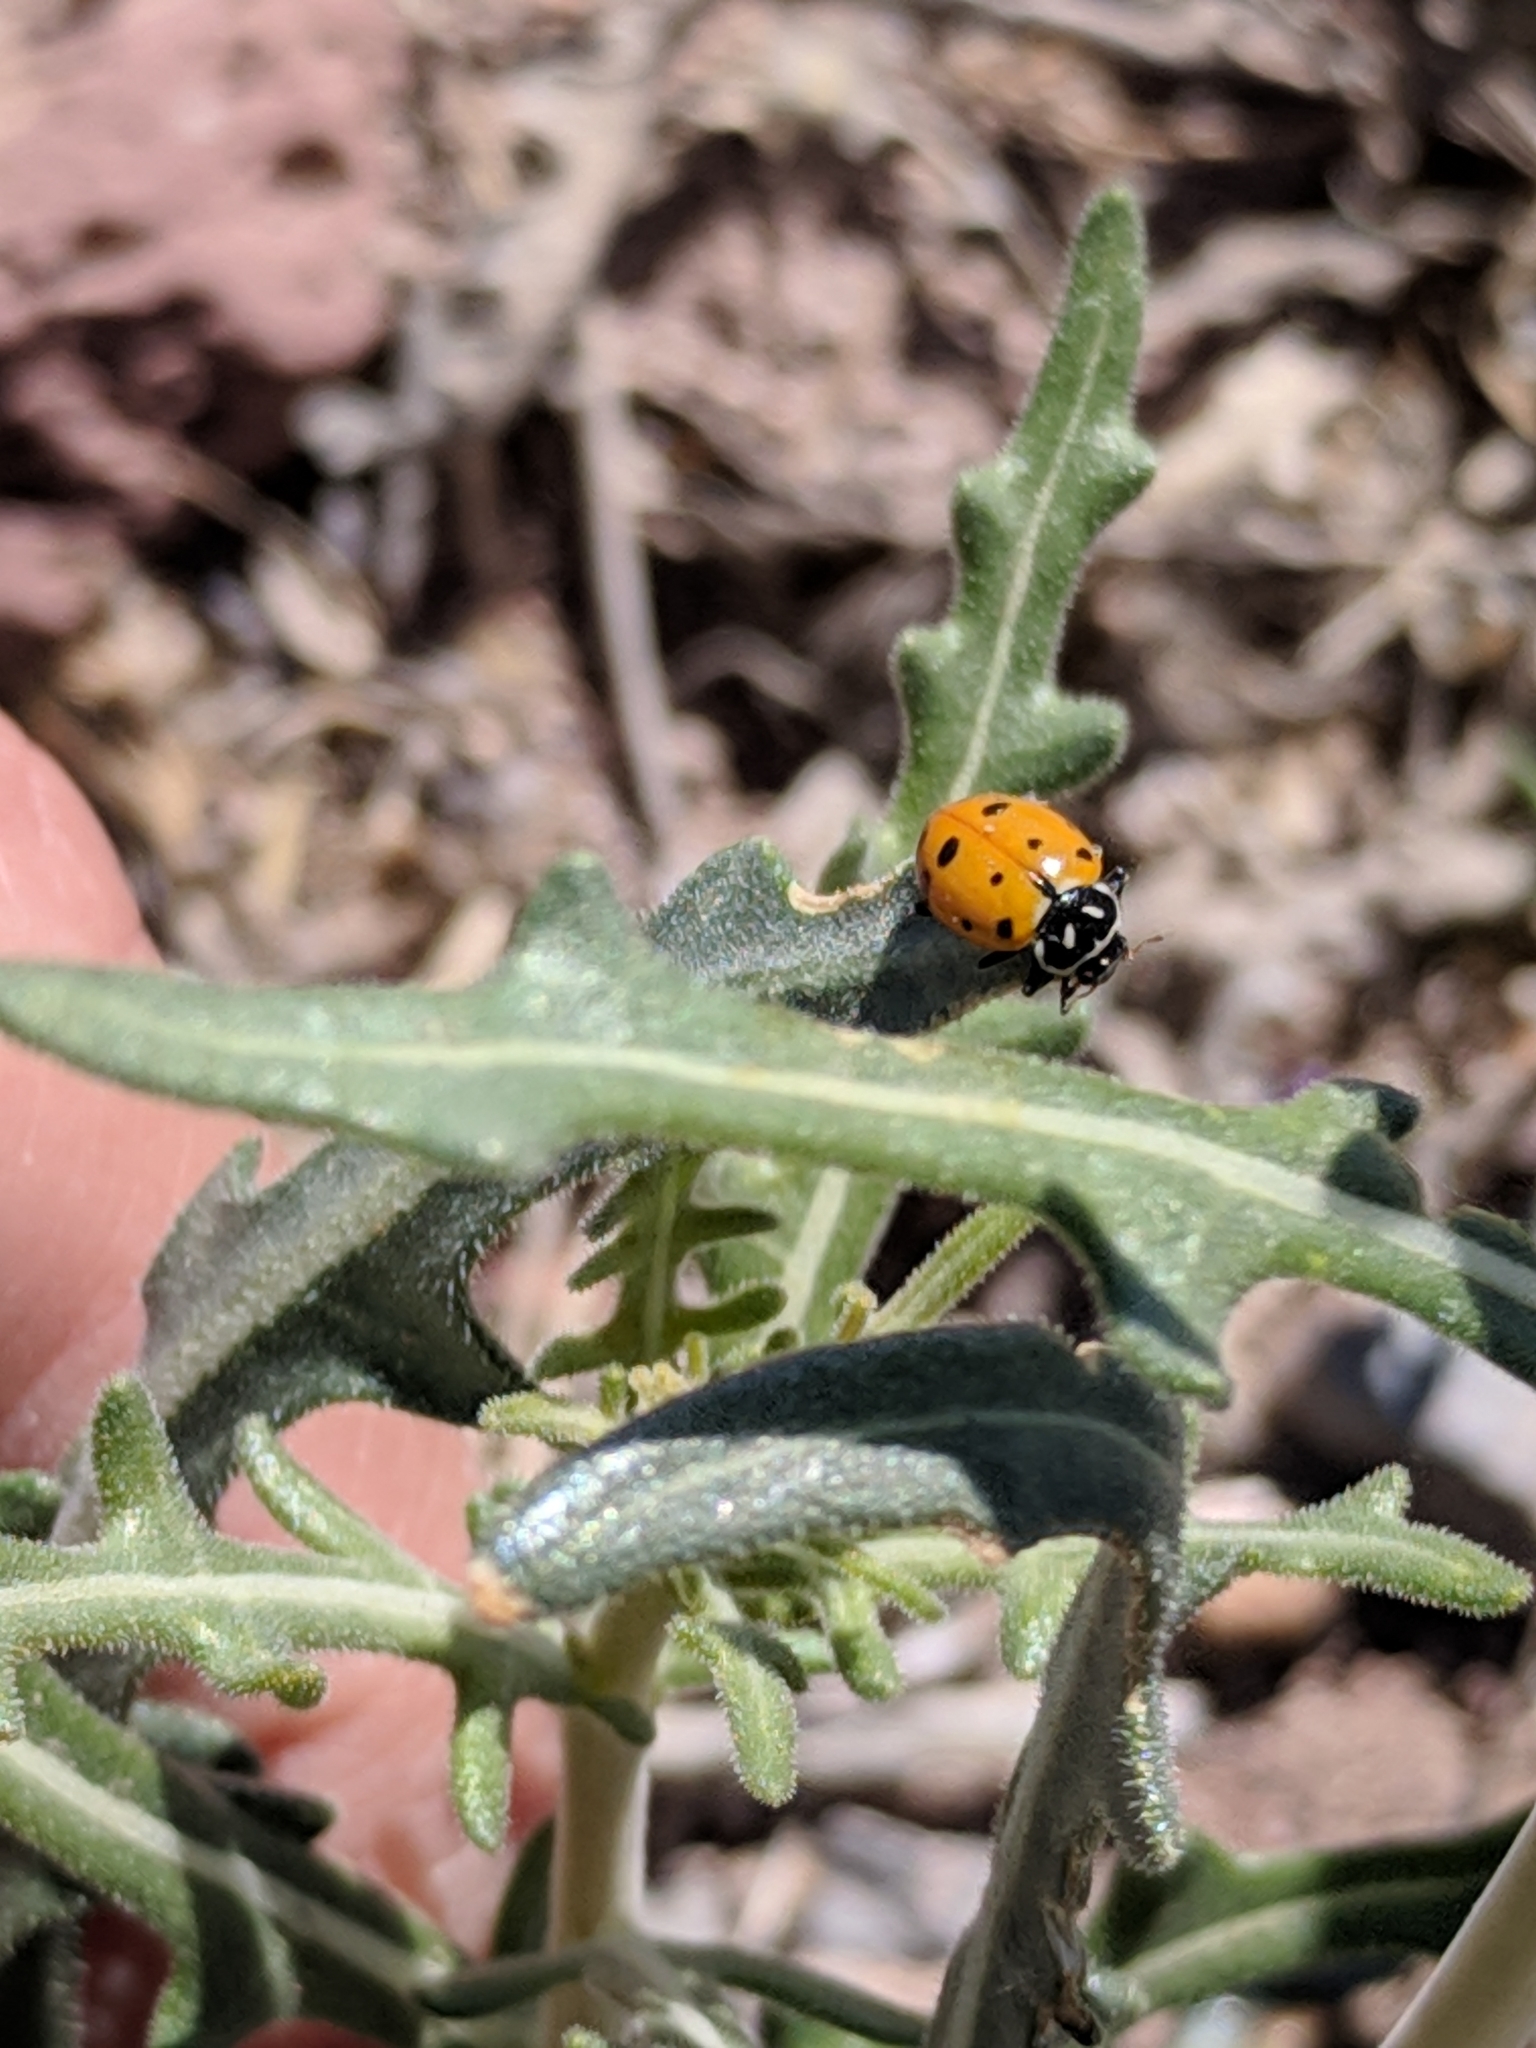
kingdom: Animalia
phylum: Arthropoda
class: Insecta
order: Coleoptera
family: Coccinellidae
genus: Hippodamia
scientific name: Hippodamia convergens
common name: Convergent lady beetle
